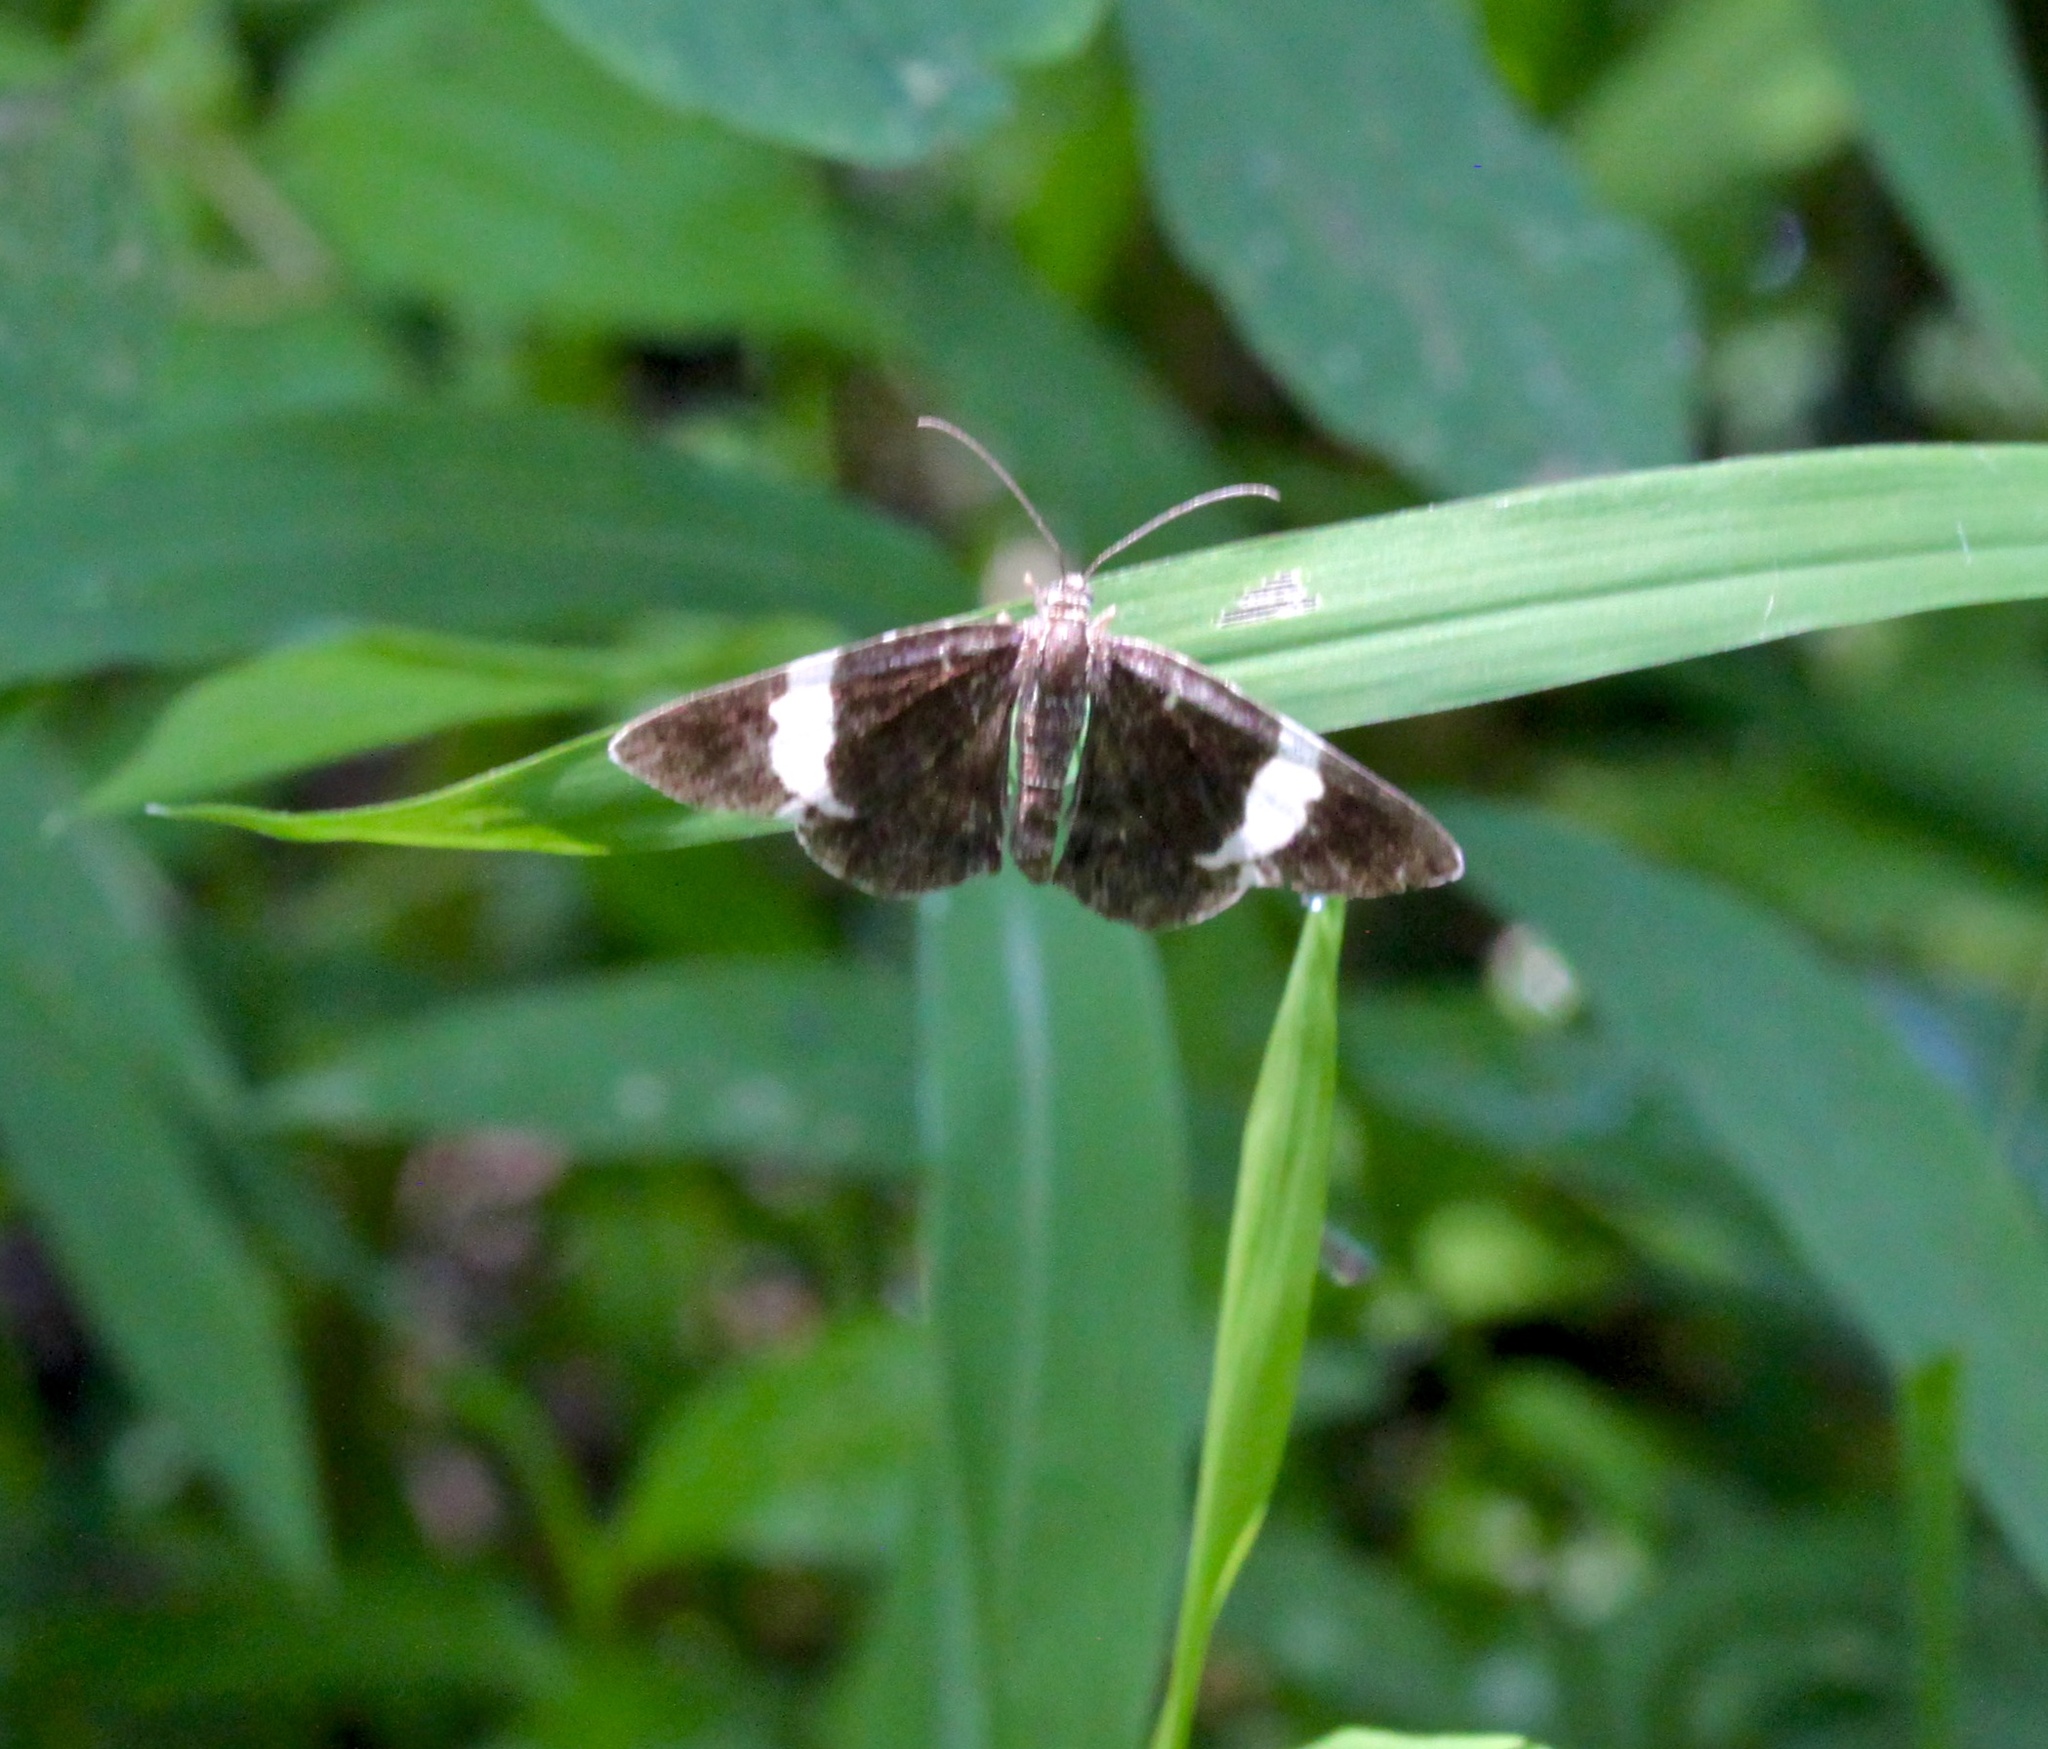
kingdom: Animalia
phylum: Arthropoda
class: Insecta
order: Lepidoptera
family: Geometridae
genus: Trichodezia
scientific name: Trichodezia albovittata
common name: White striped black
